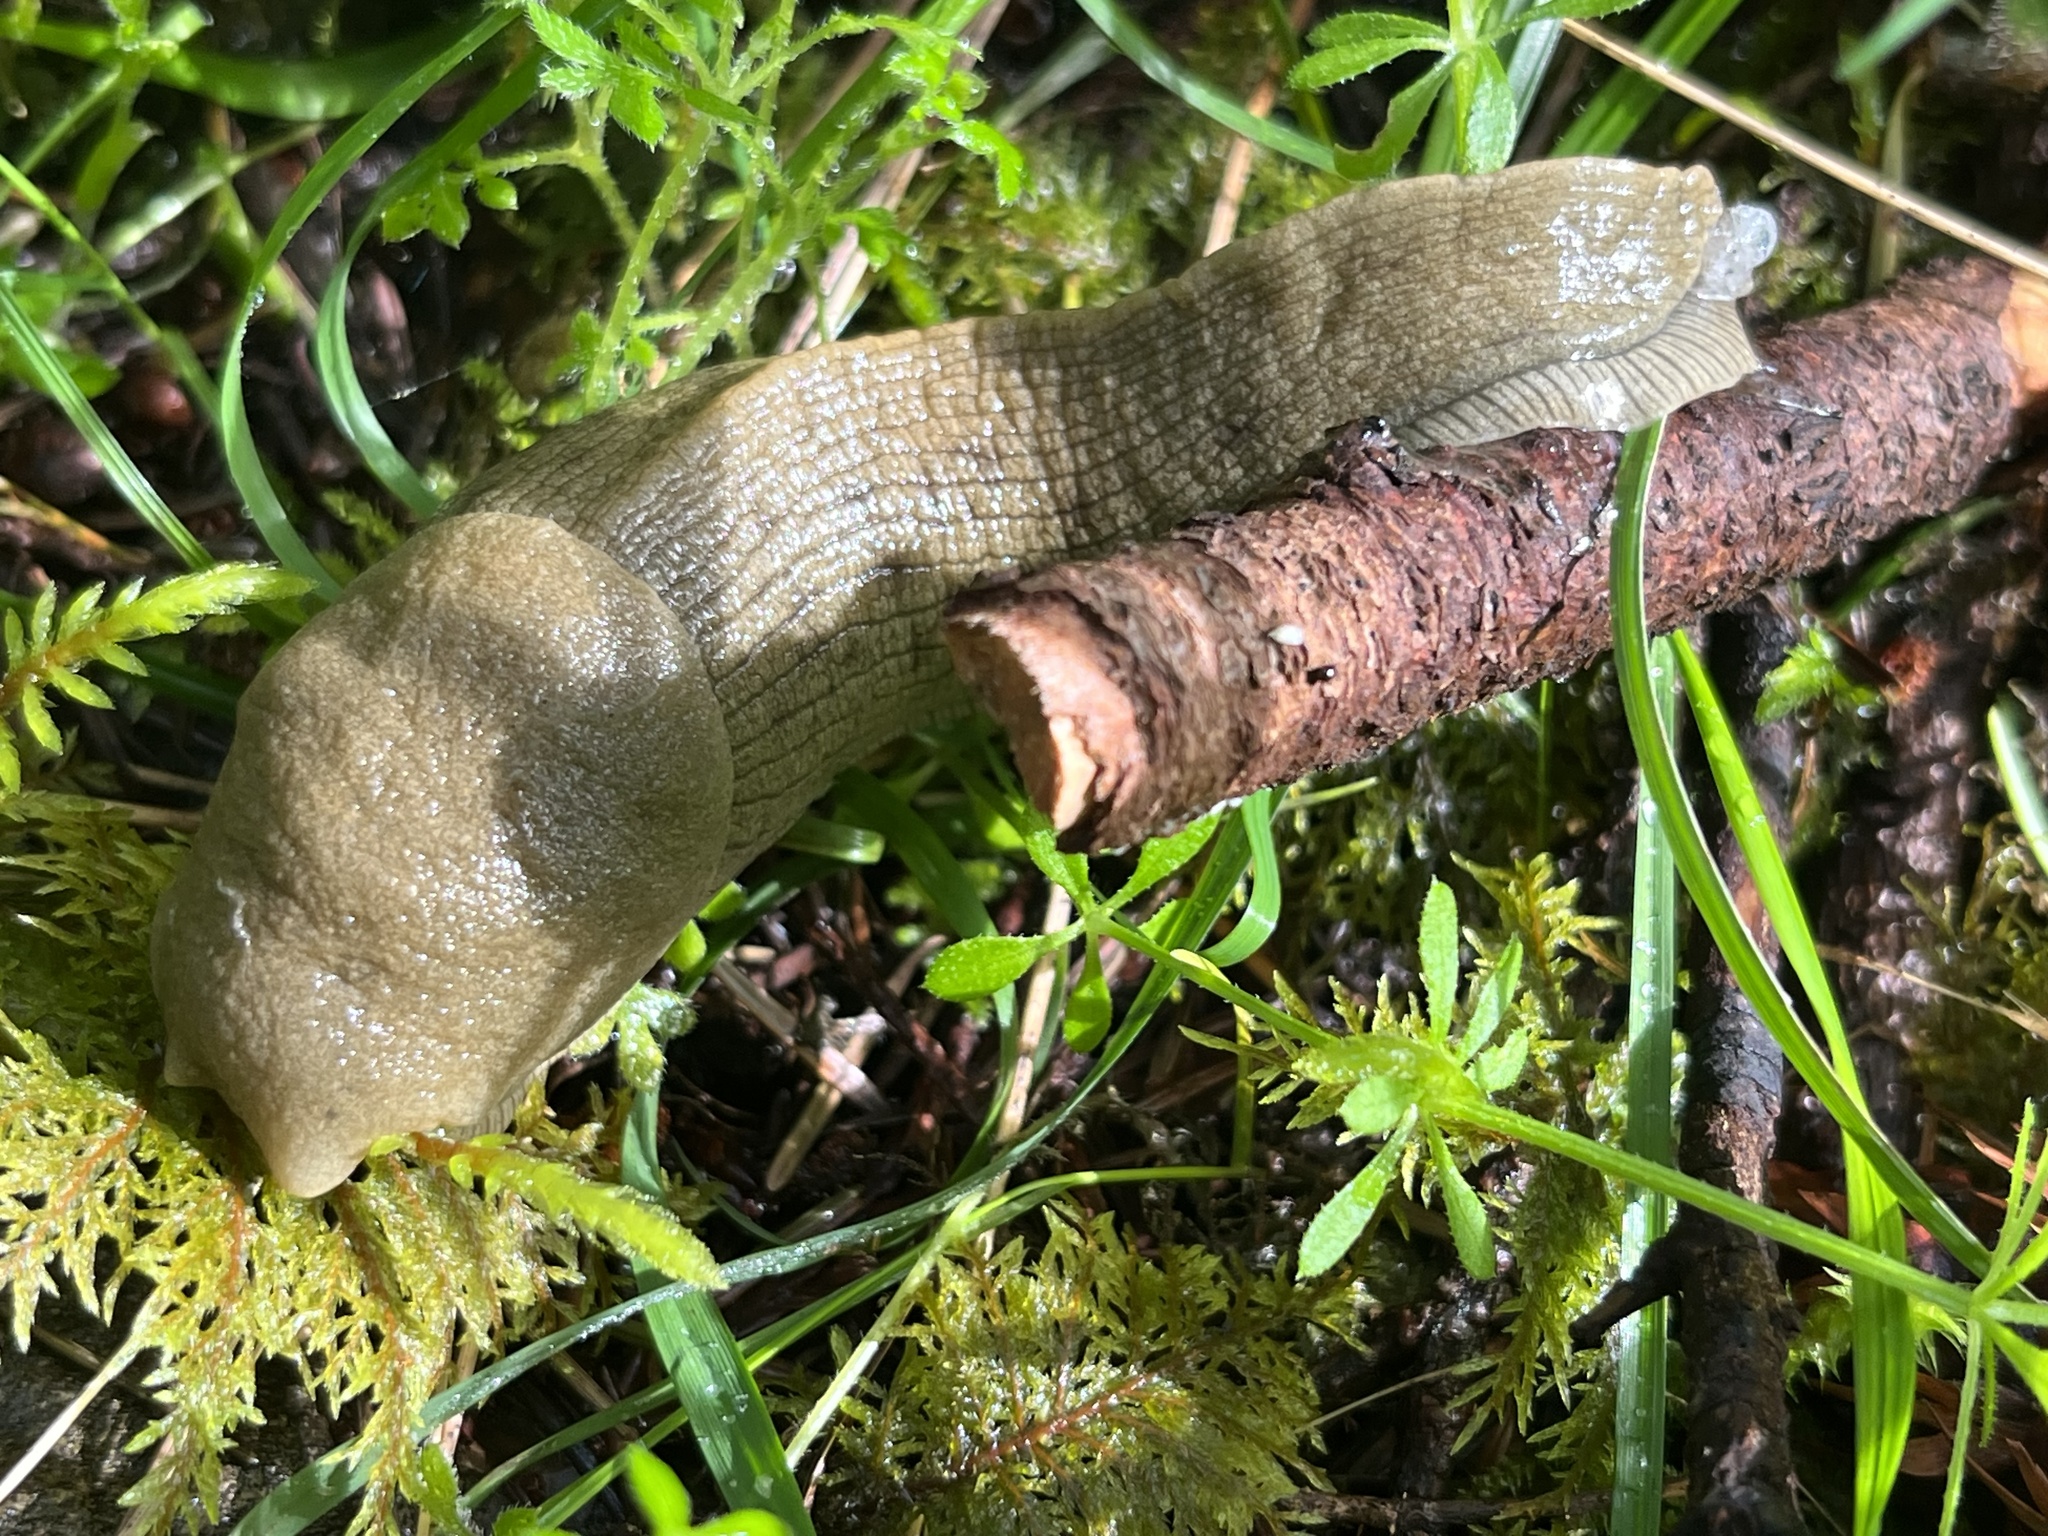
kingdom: Animalia
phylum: Mollusca
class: Gastropoda
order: Stylommatophora
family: Ariolimacidae
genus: Ariolimax
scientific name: Ariolimax columbianus
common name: Pacific banana slug
